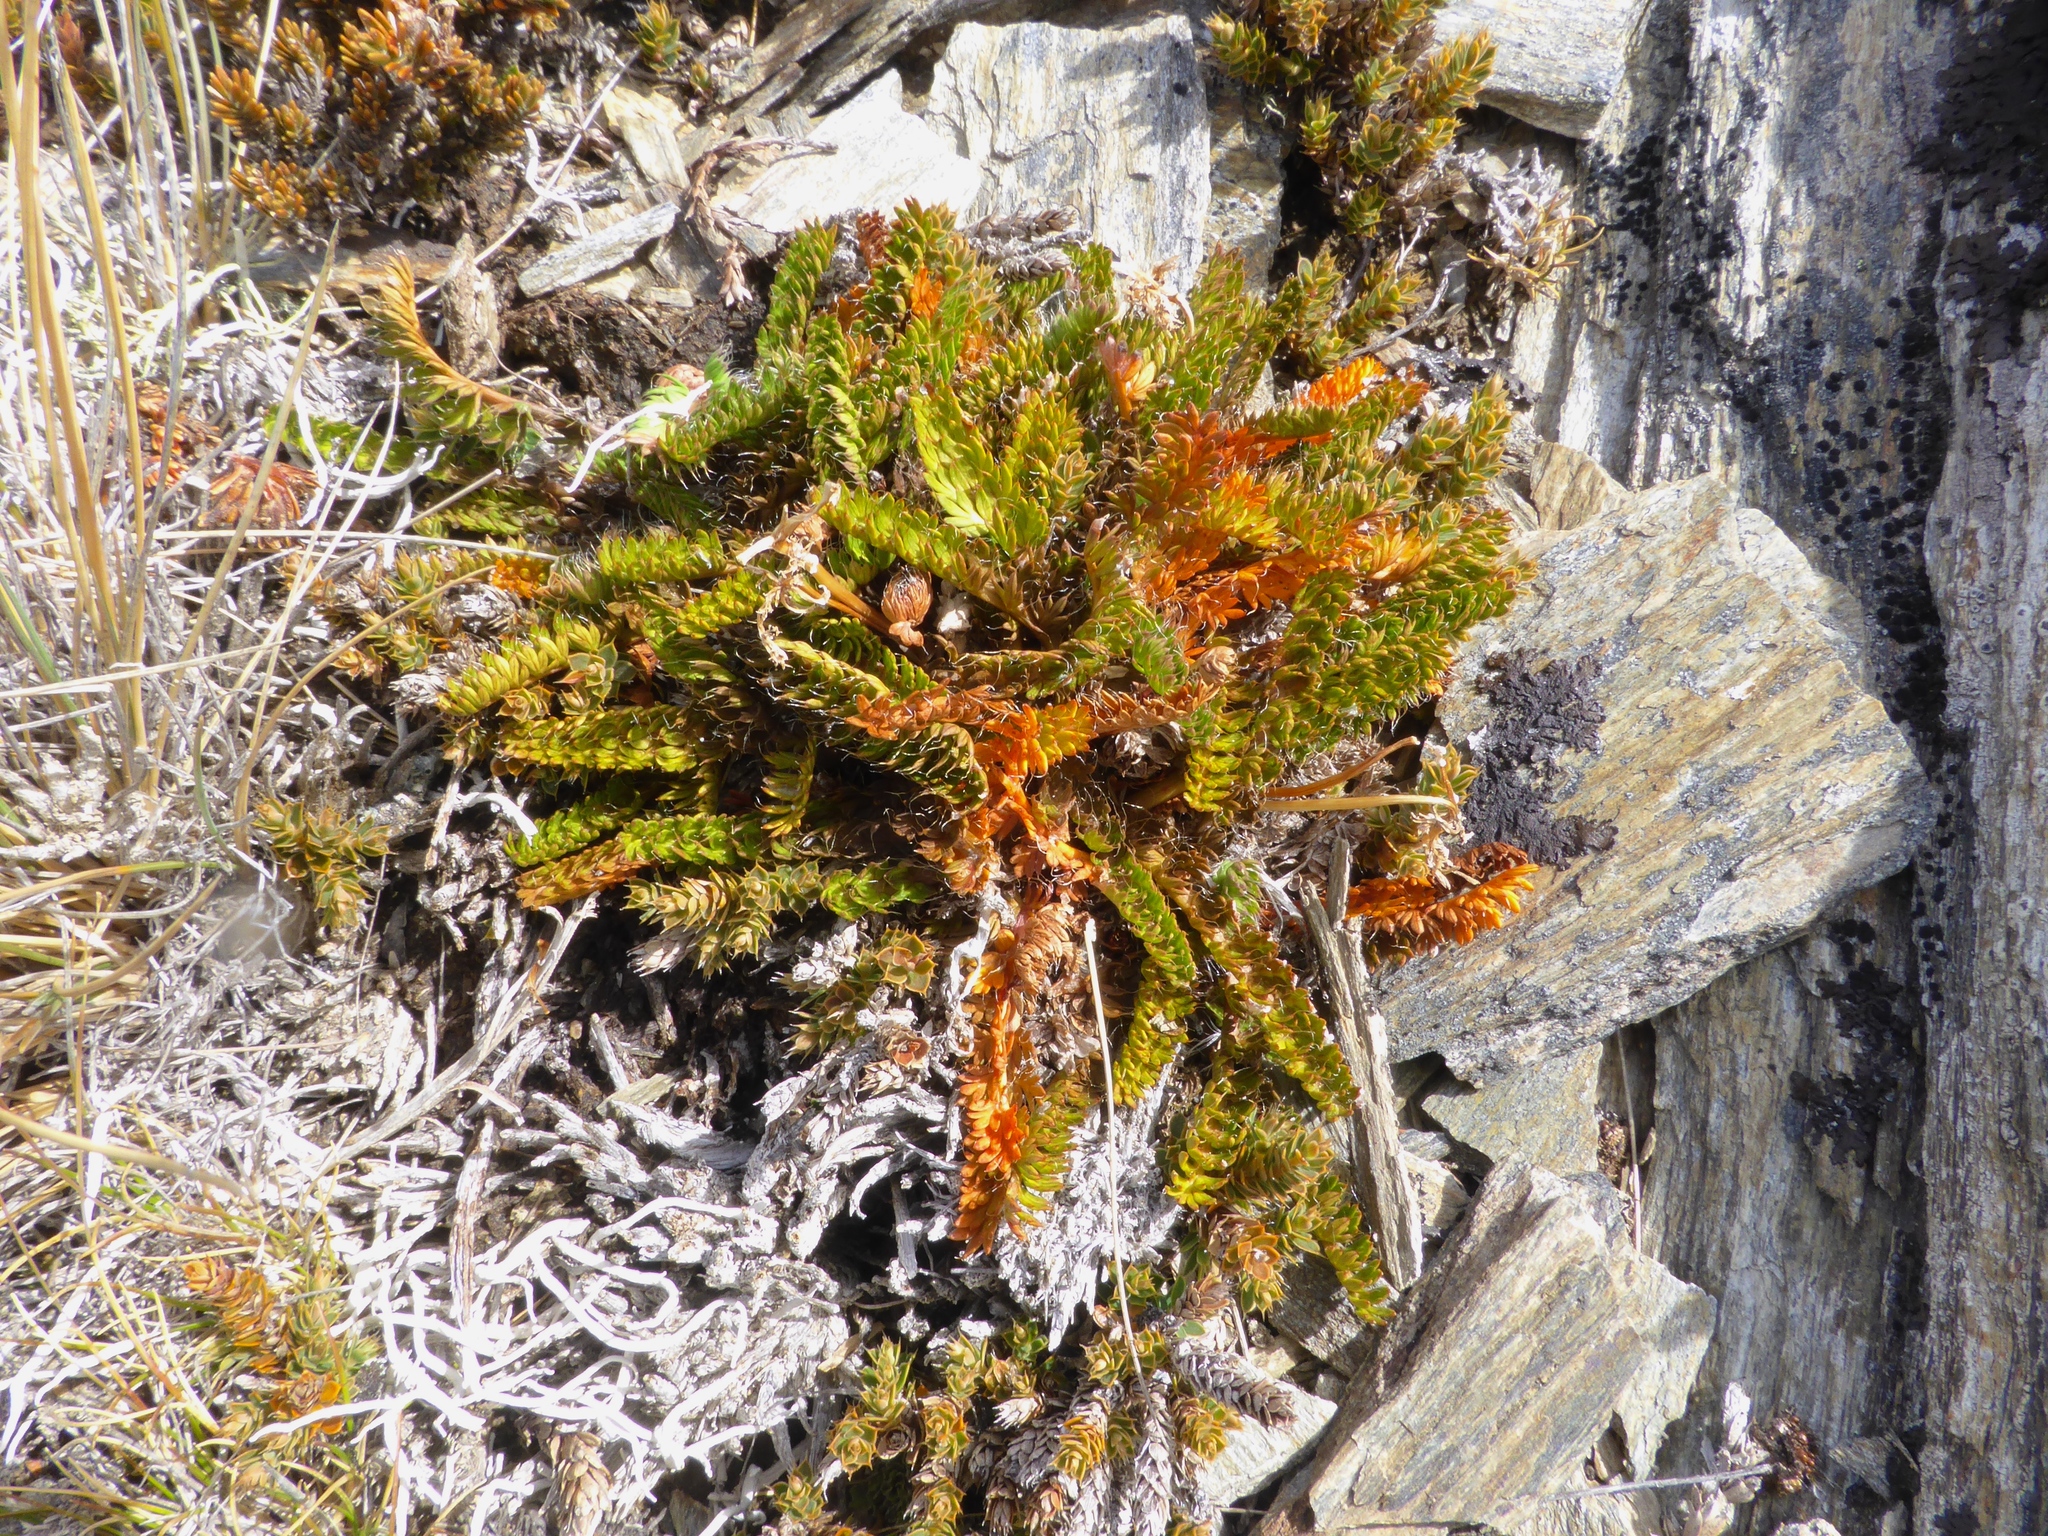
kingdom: Plantae
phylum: Tracheophyta
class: Magnoliopsida
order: Apiales
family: Apiaceae
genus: Anisotome
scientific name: Anisotome flexuosa
